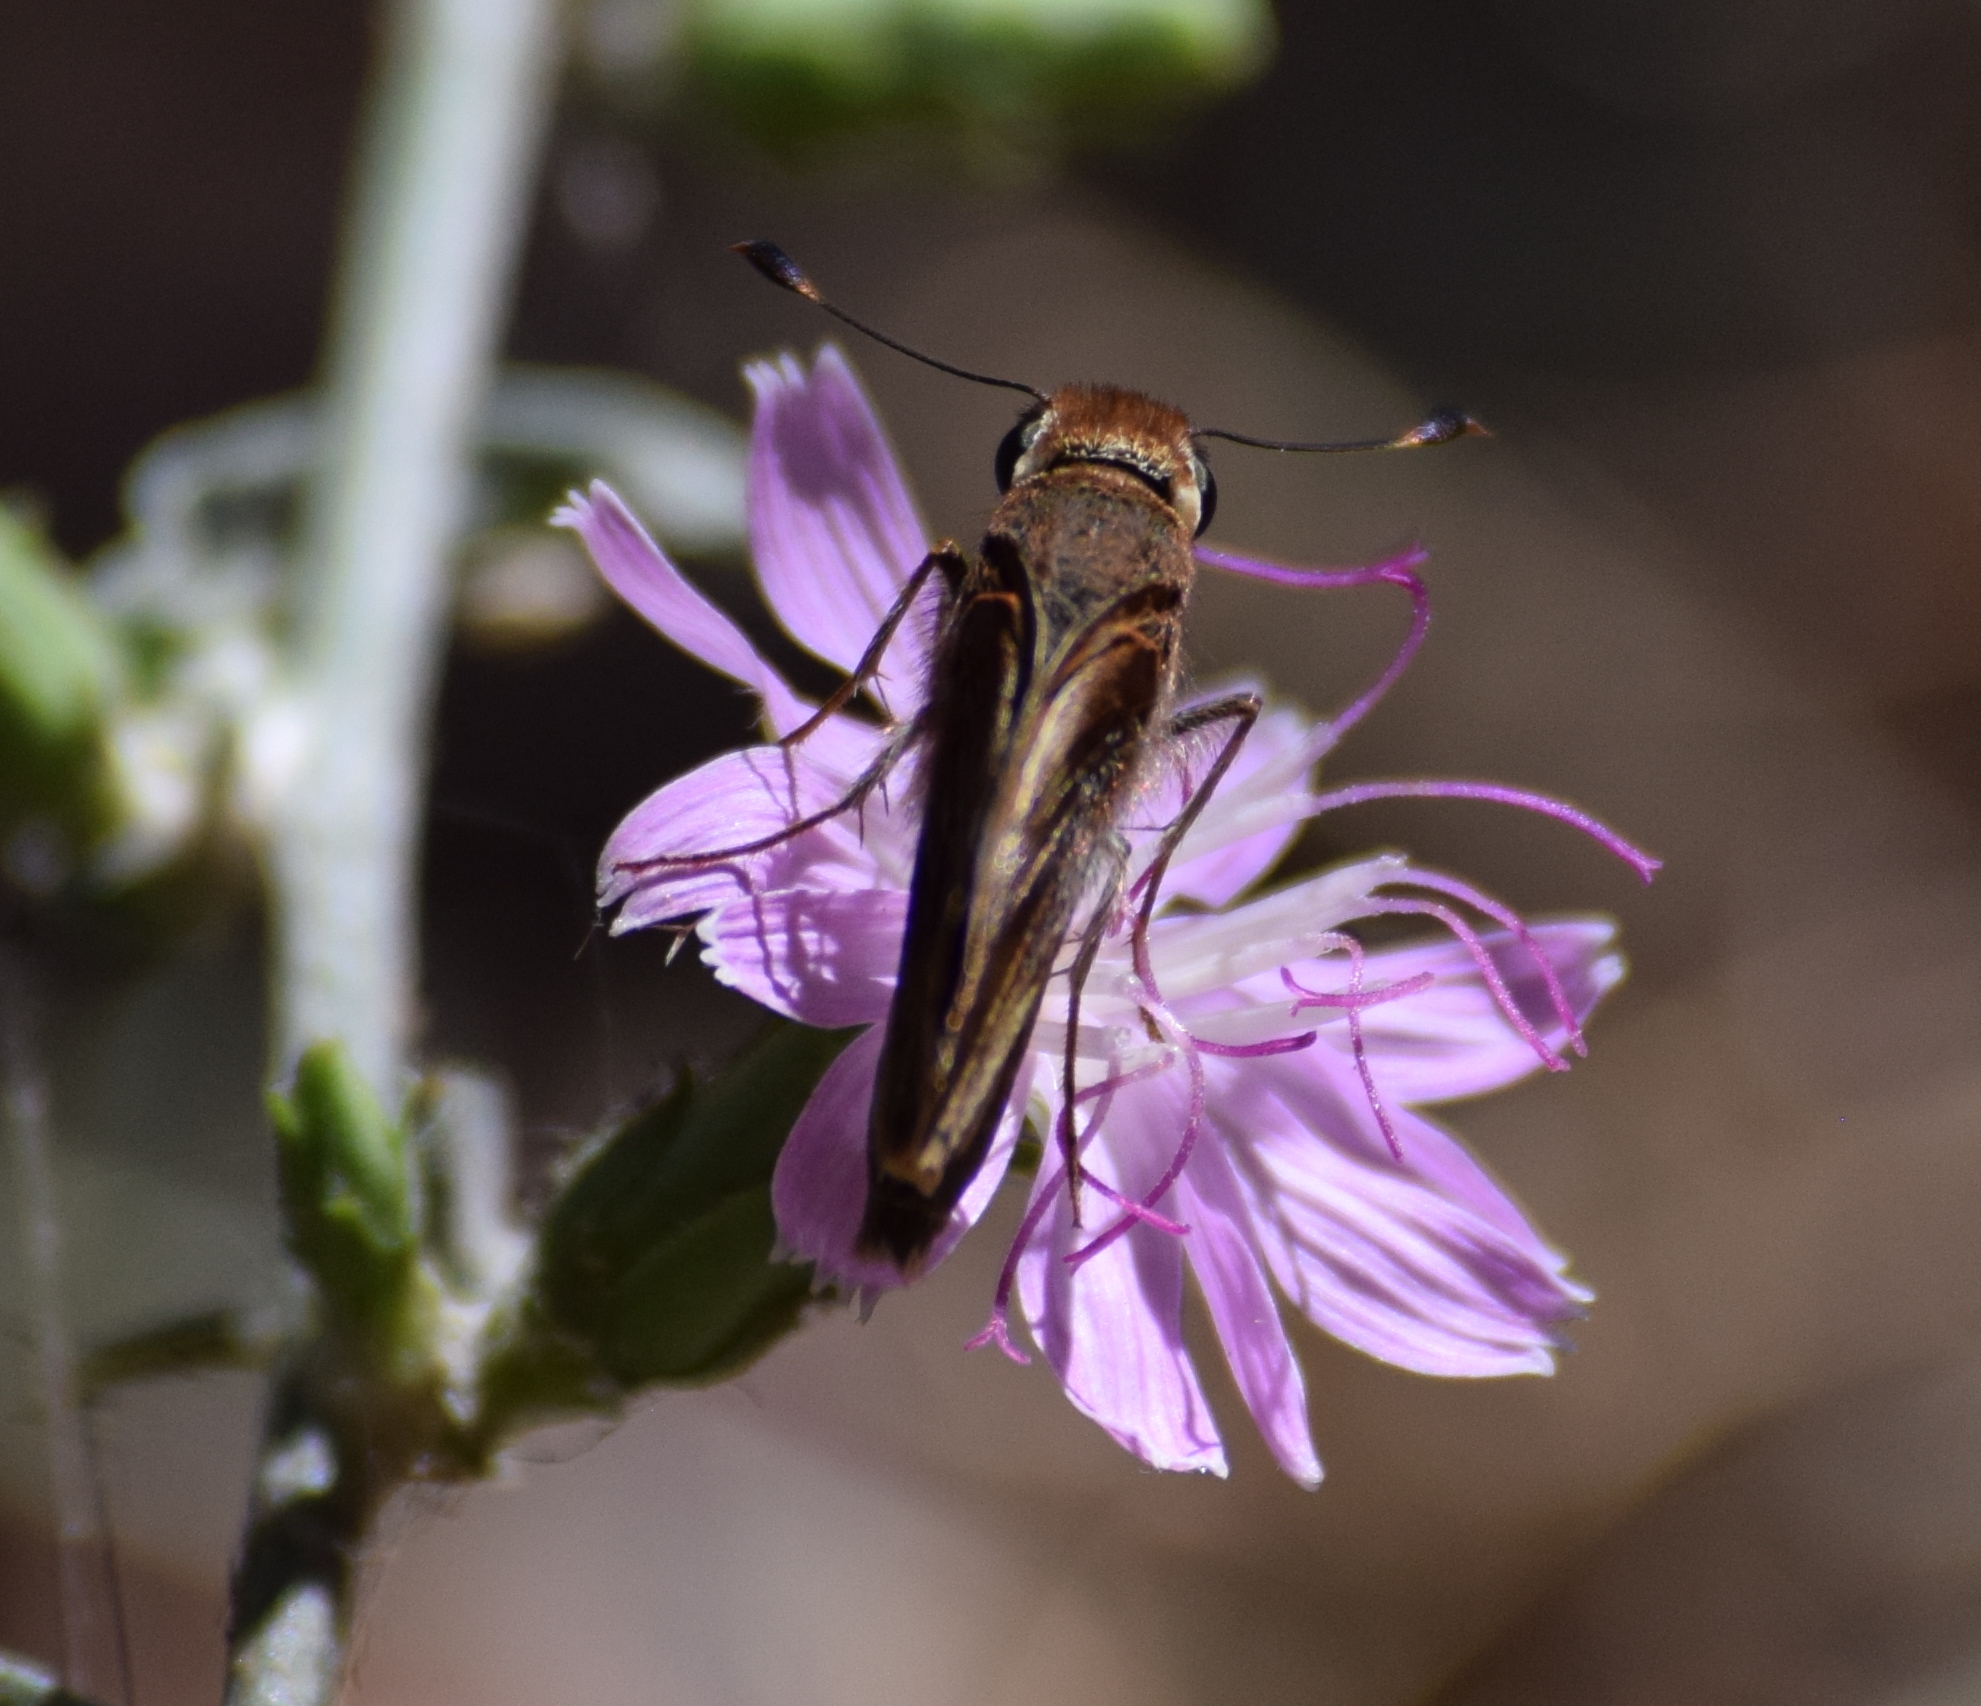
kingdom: Animalia
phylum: Arthropoda
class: Insecta
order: Lepidoptera
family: Hesperiidae
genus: Lon
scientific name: Lon melane
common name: Umber skipper
